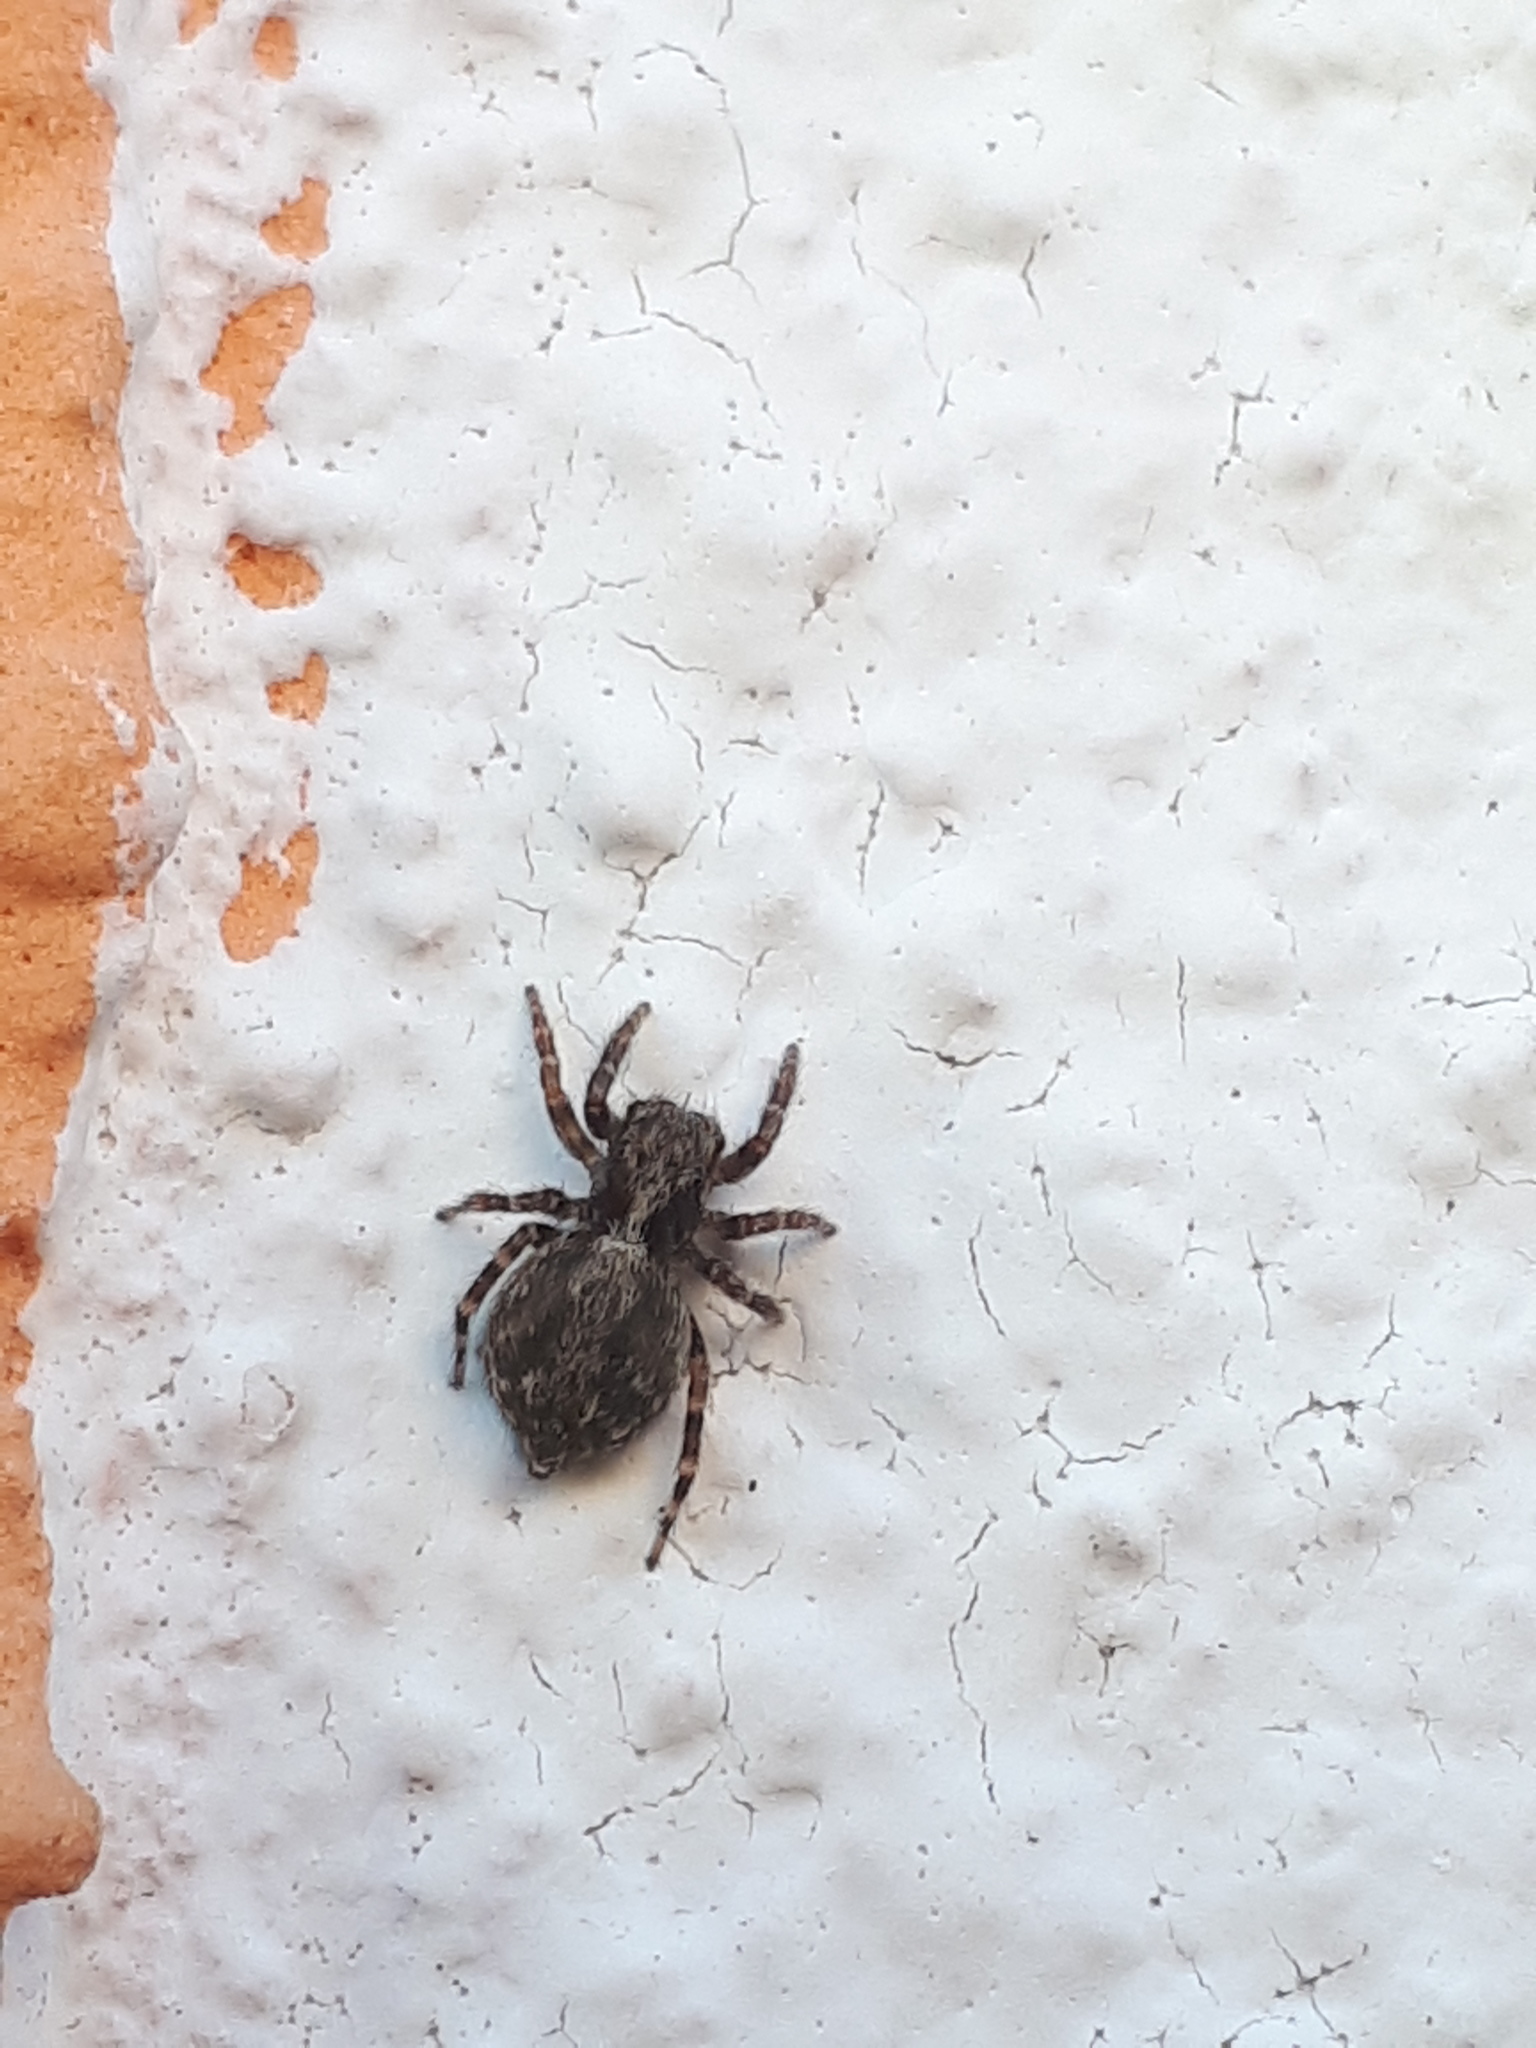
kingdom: Animalia
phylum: Arthropoda
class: Arachnida
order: Araneae
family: Salticidae
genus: Pseudeuophrys
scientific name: Pseudeuophrys lanigera
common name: Jumping spider
